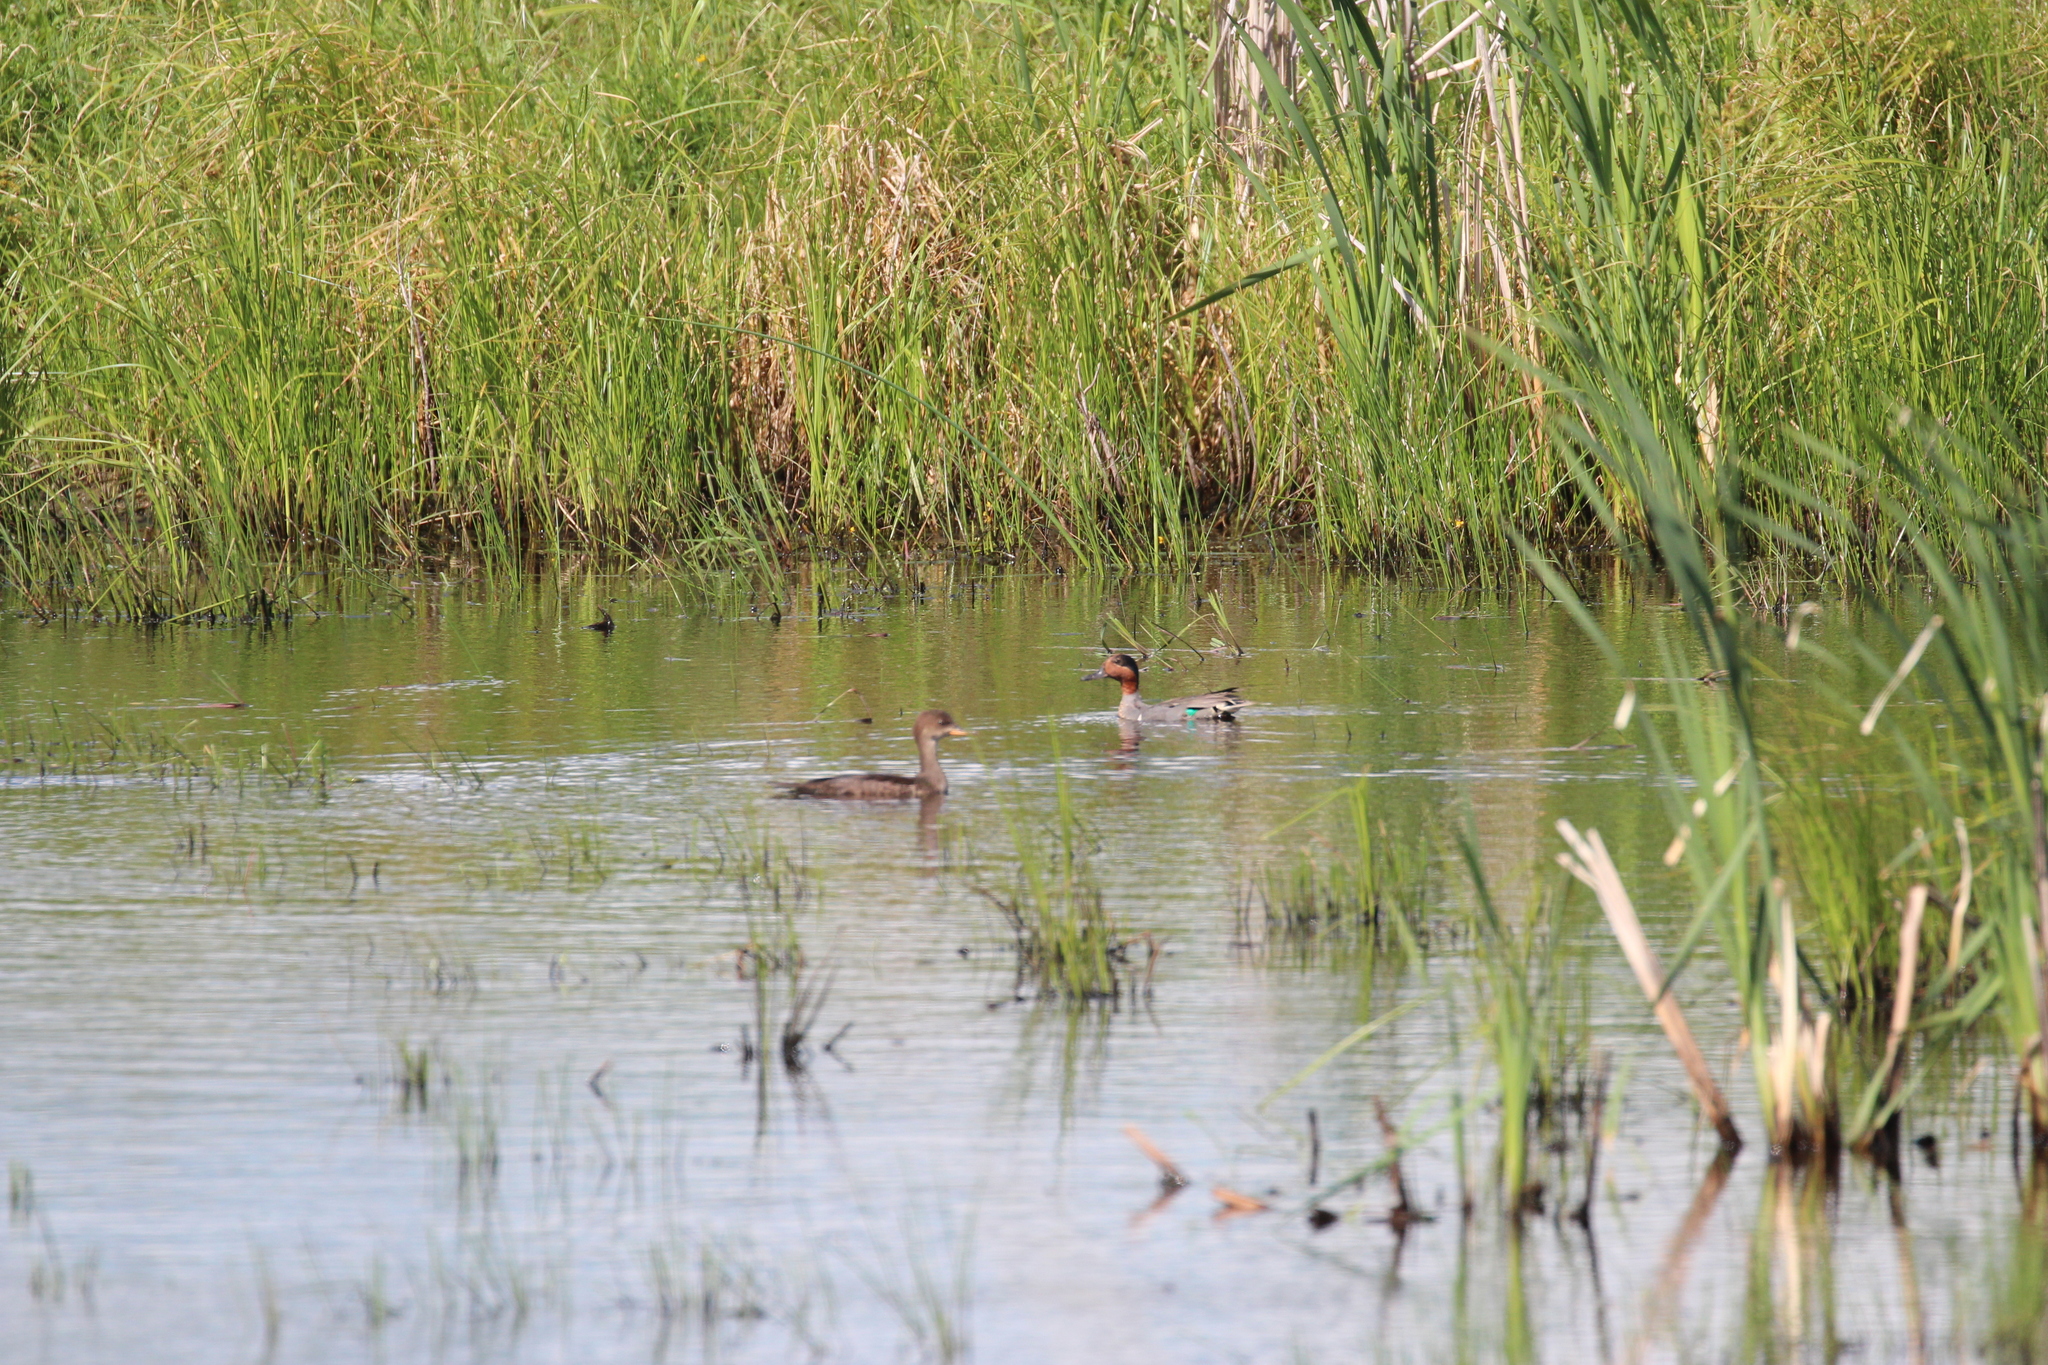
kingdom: Animalia
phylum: Chordata
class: Aves
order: Anseriformes
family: Anatidae
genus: Anas
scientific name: Anas crecca
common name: Eurasian teal
